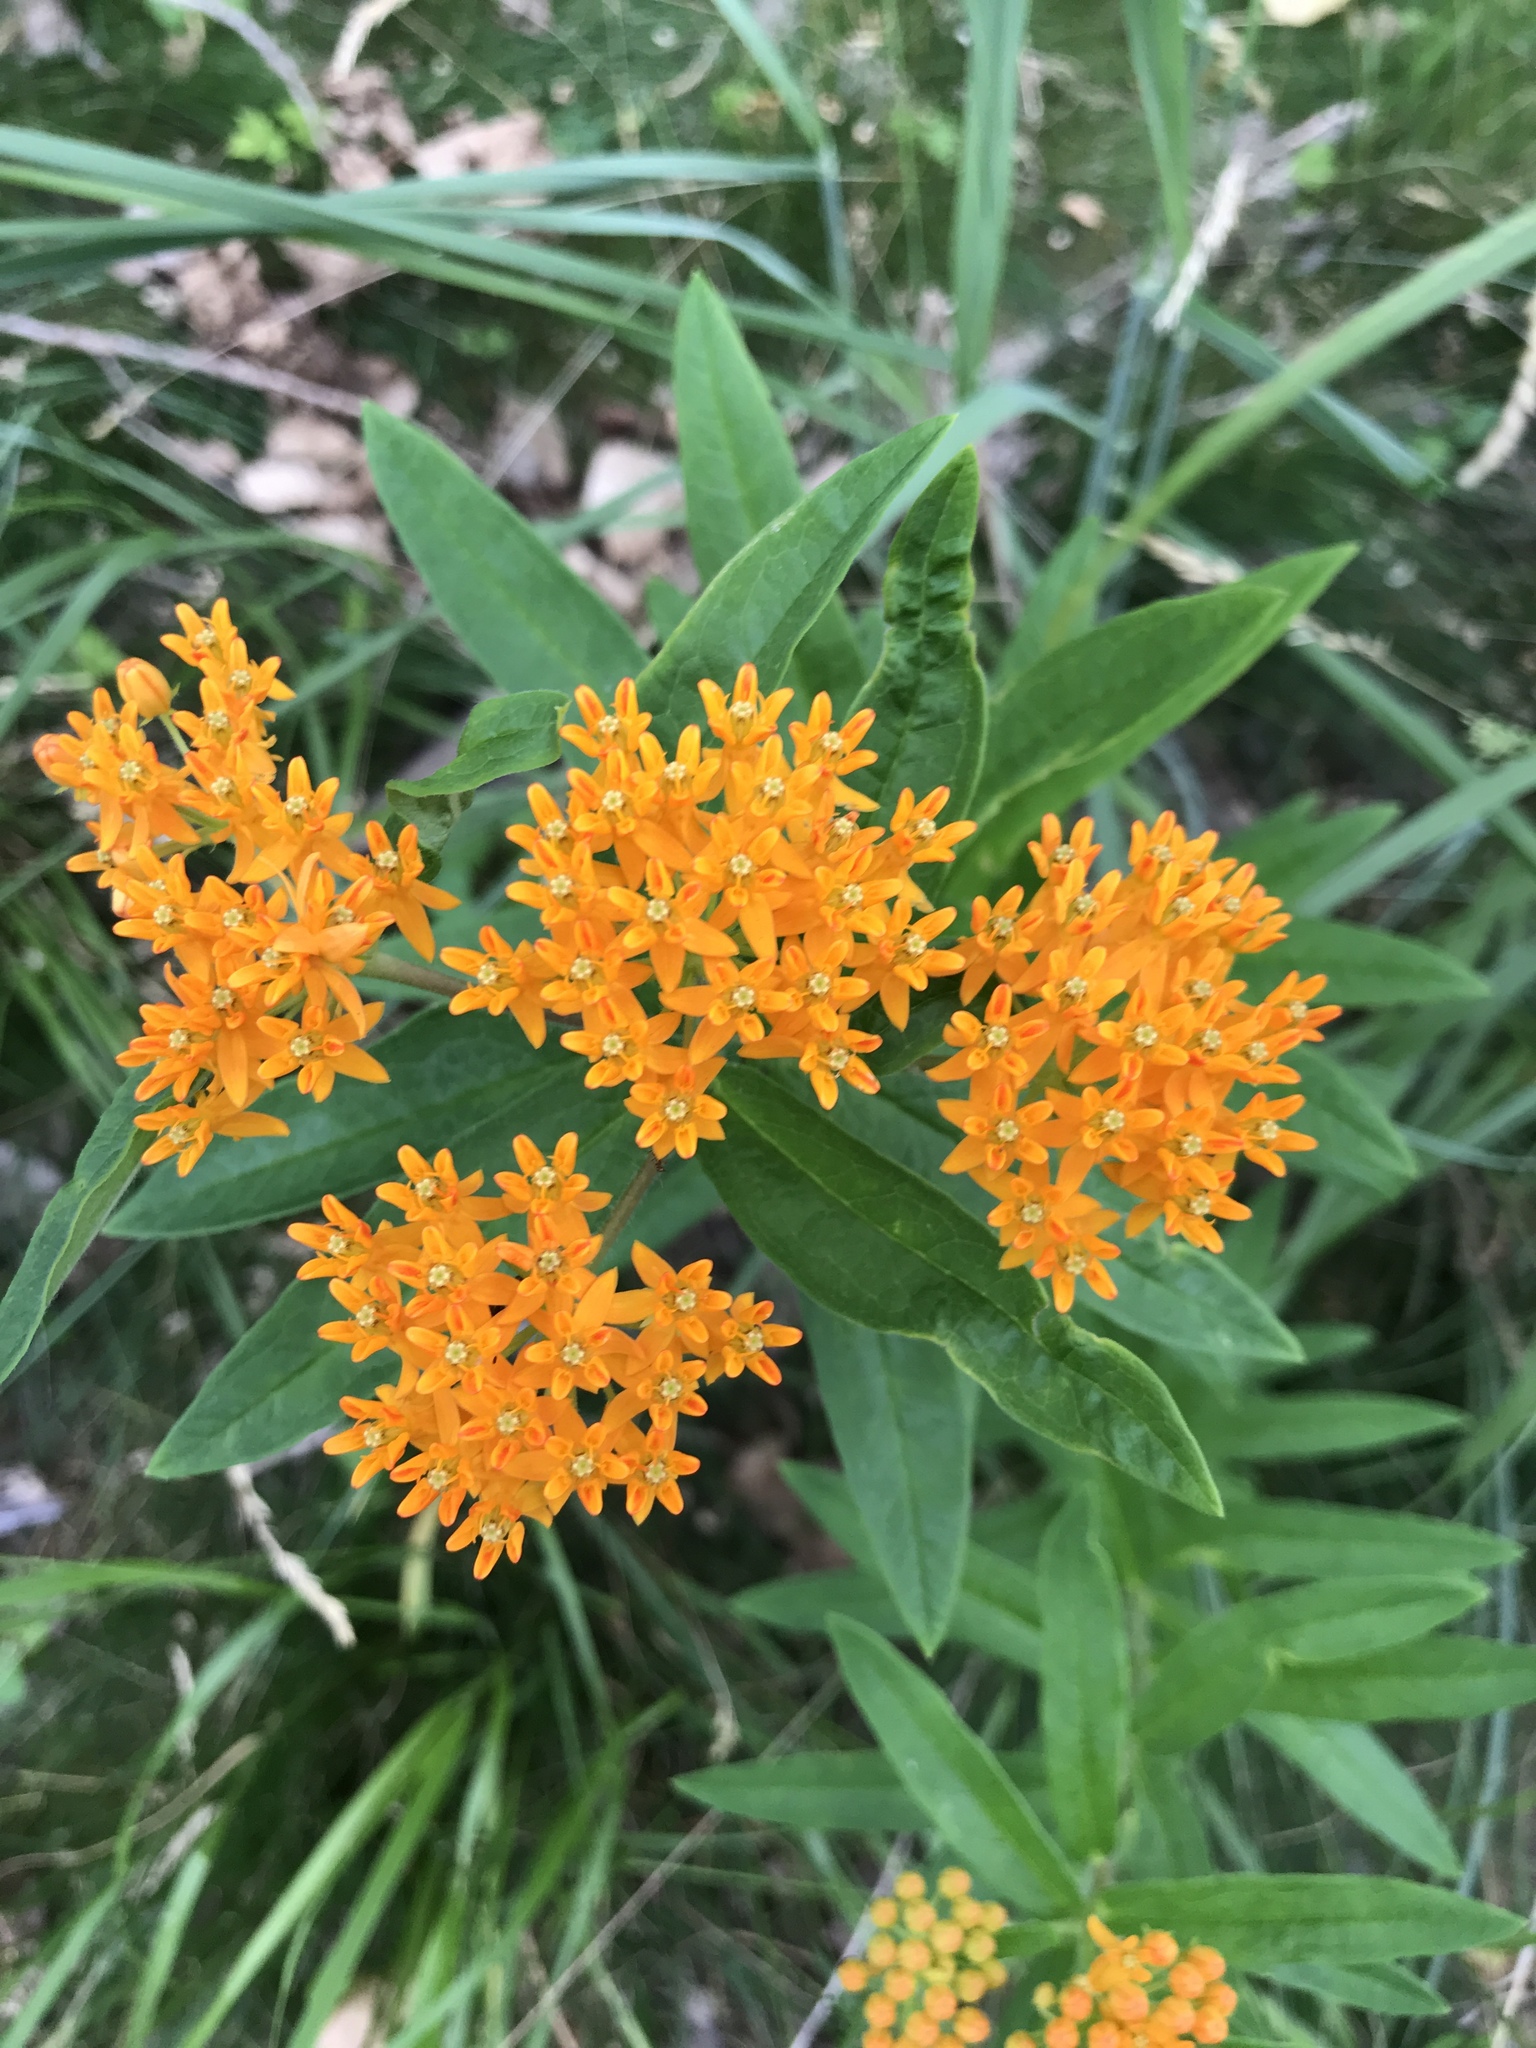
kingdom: Plantae
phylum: Tracheophyta
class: Magnoliopsida
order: Gentianales
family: Apocynaceae
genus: Asclepias
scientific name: Asclepias tuberosa
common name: Butterfly milkweed
